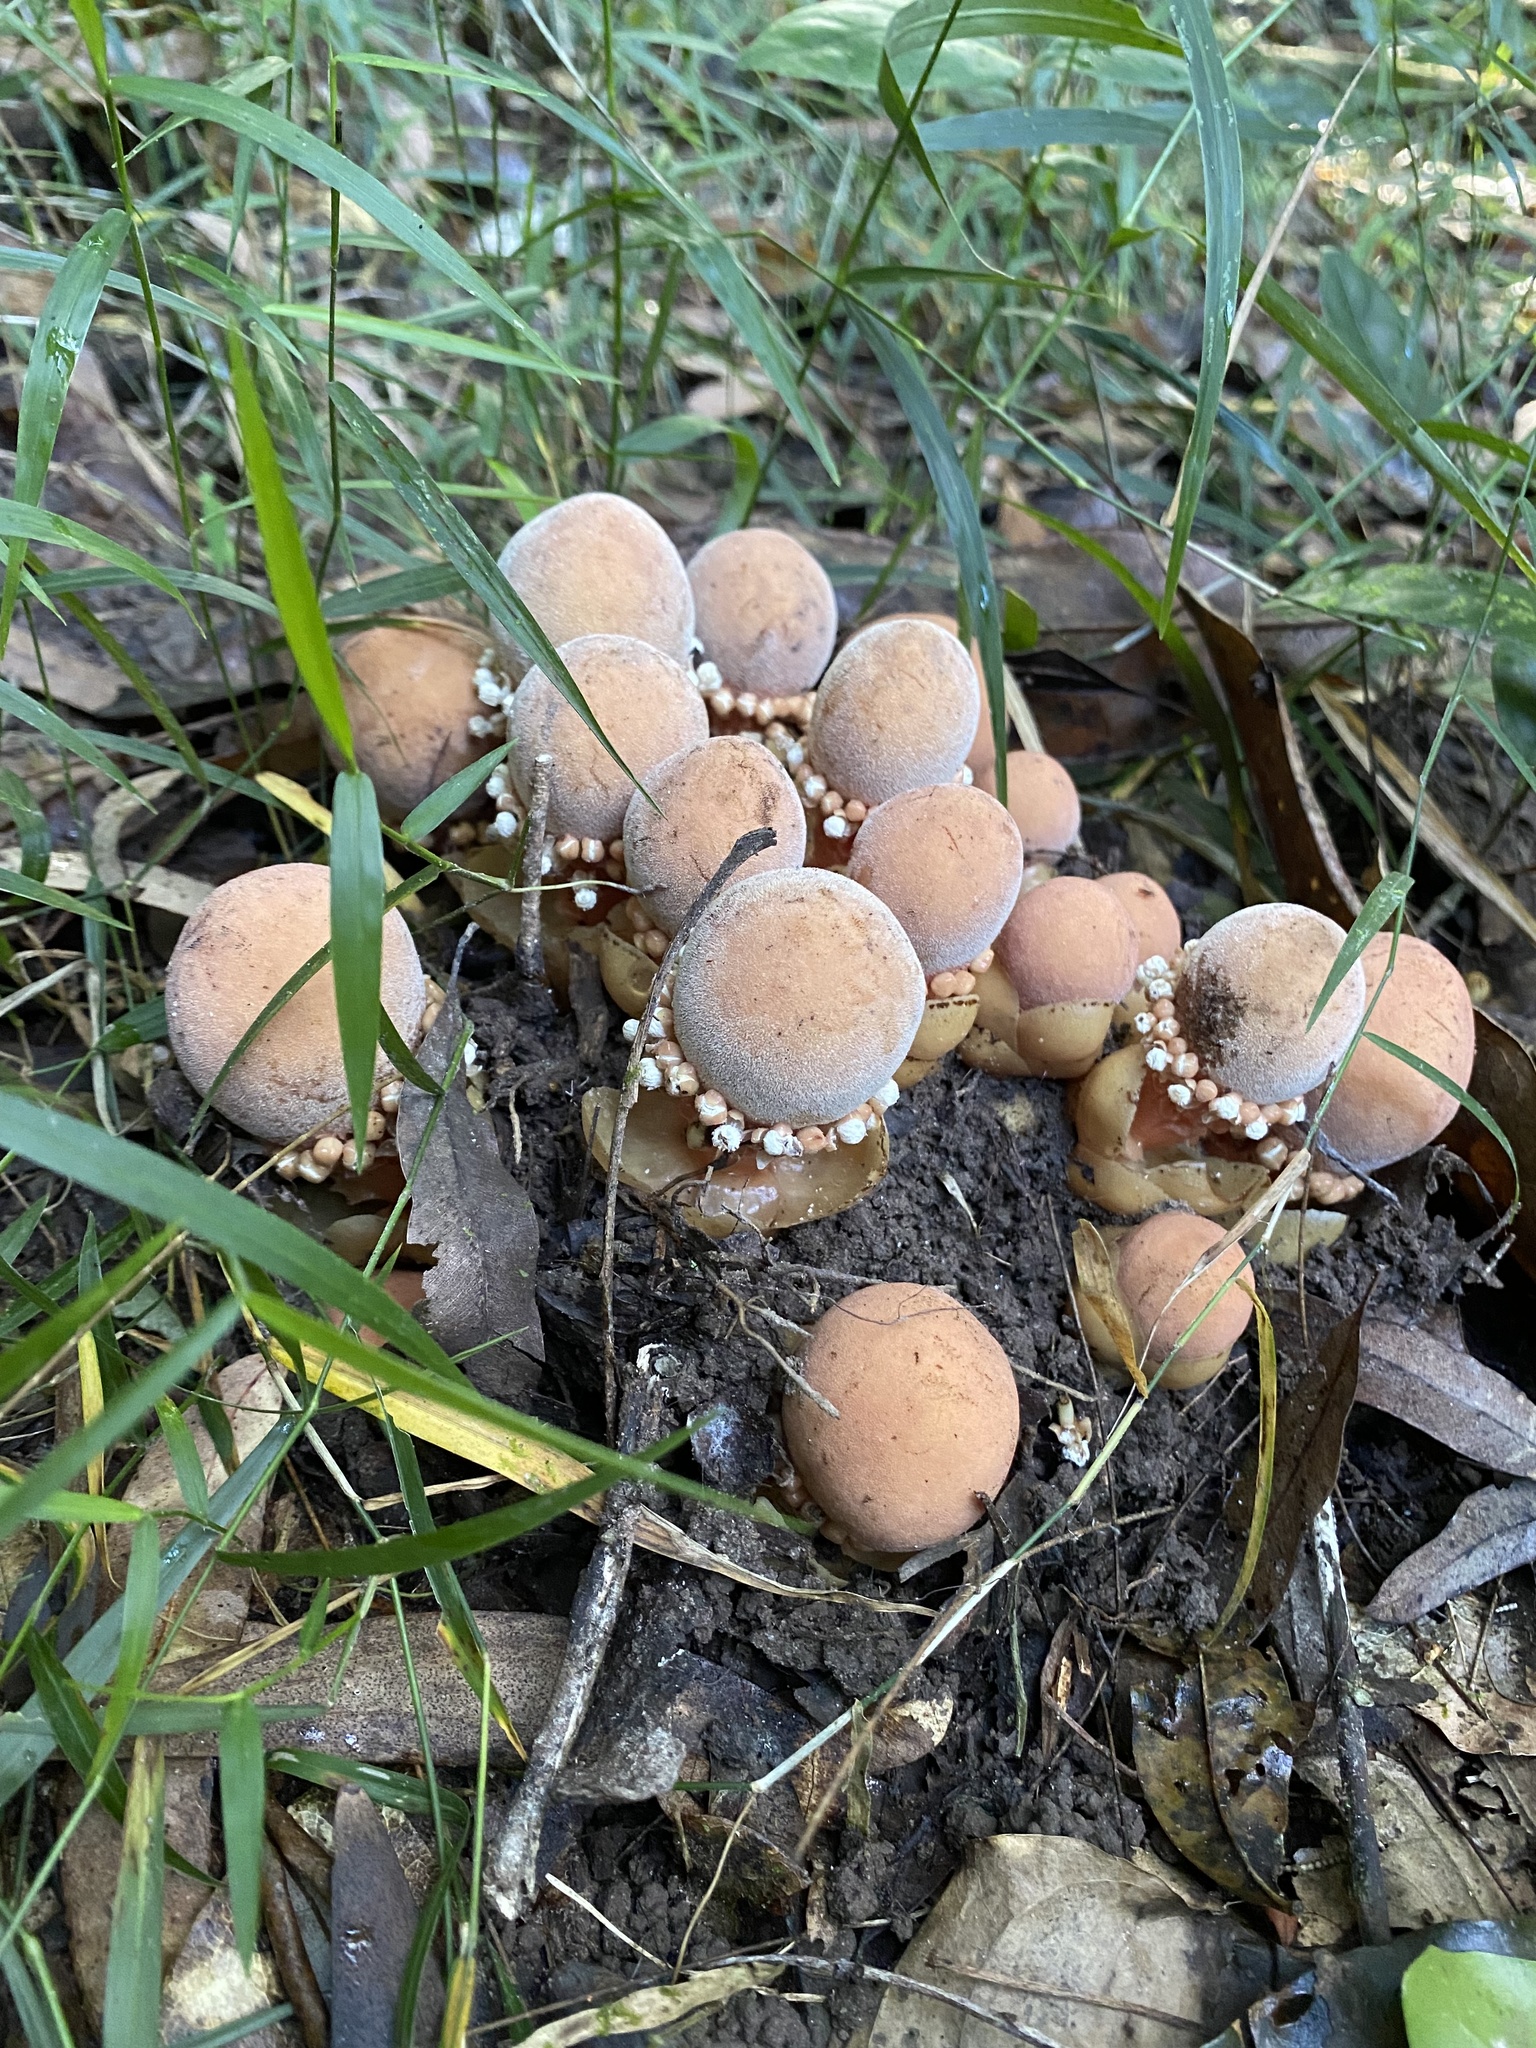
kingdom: Plantae
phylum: Tracheophyta
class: Magnoliopsida
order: Santalales
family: Balanophoraceae
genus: Balanophora
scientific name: Balanophora fungosa
